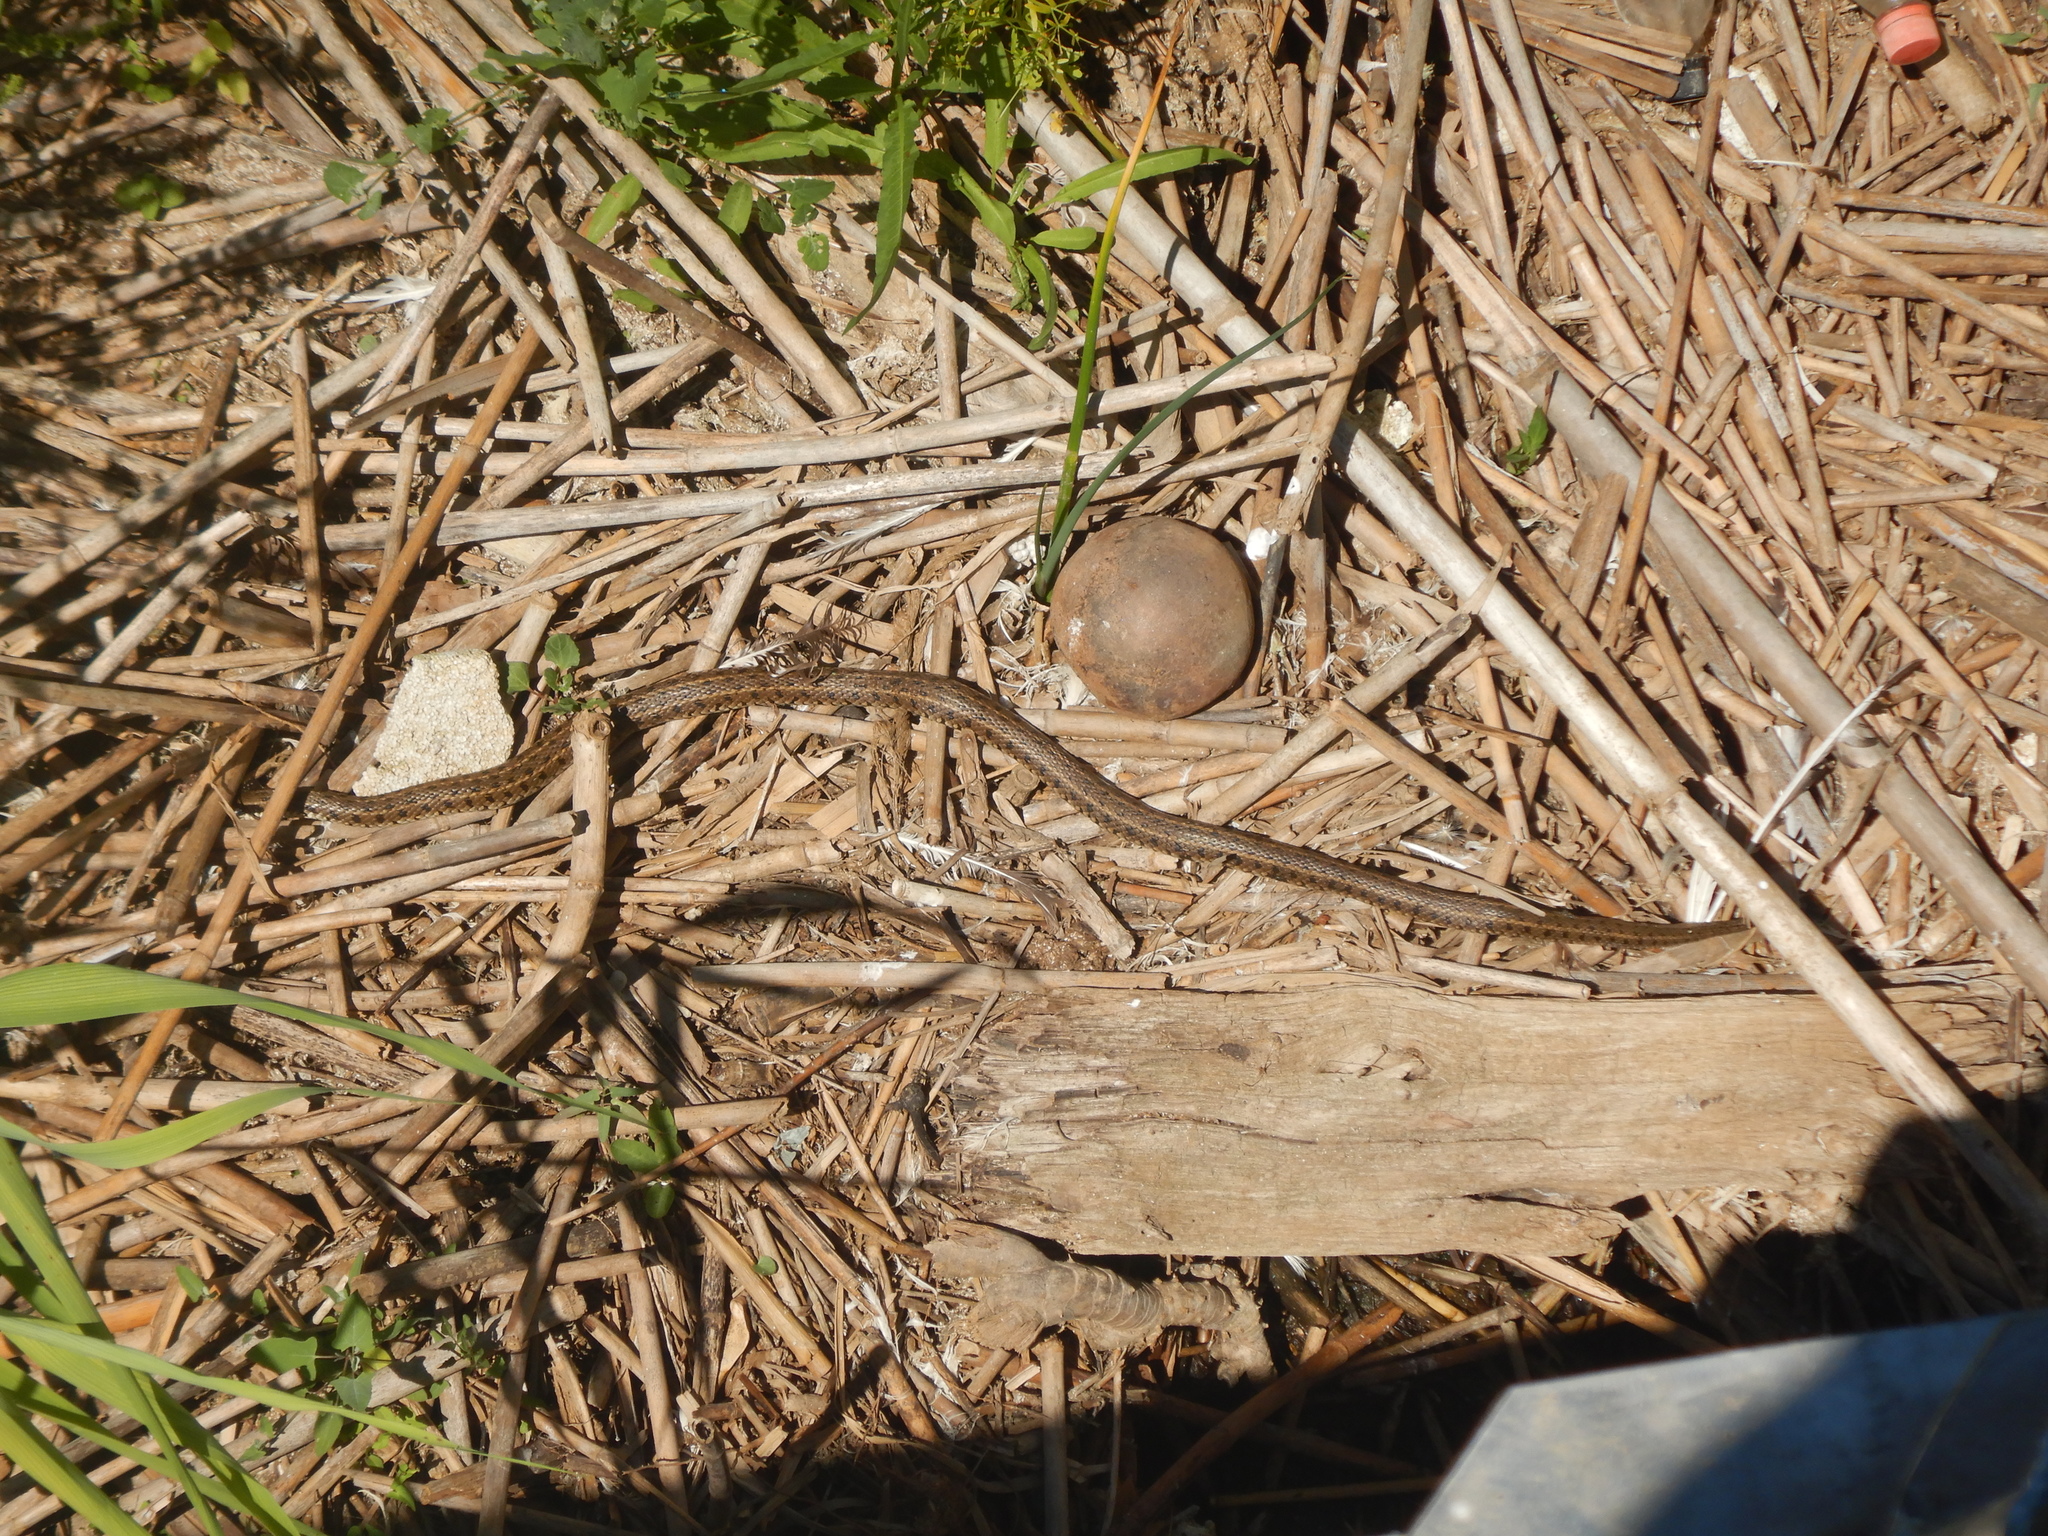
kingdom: Animalia
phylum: Chordata
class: Squamata
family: Colubridae
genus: Natrix
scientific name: Natrix natrix
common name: Grass snake
